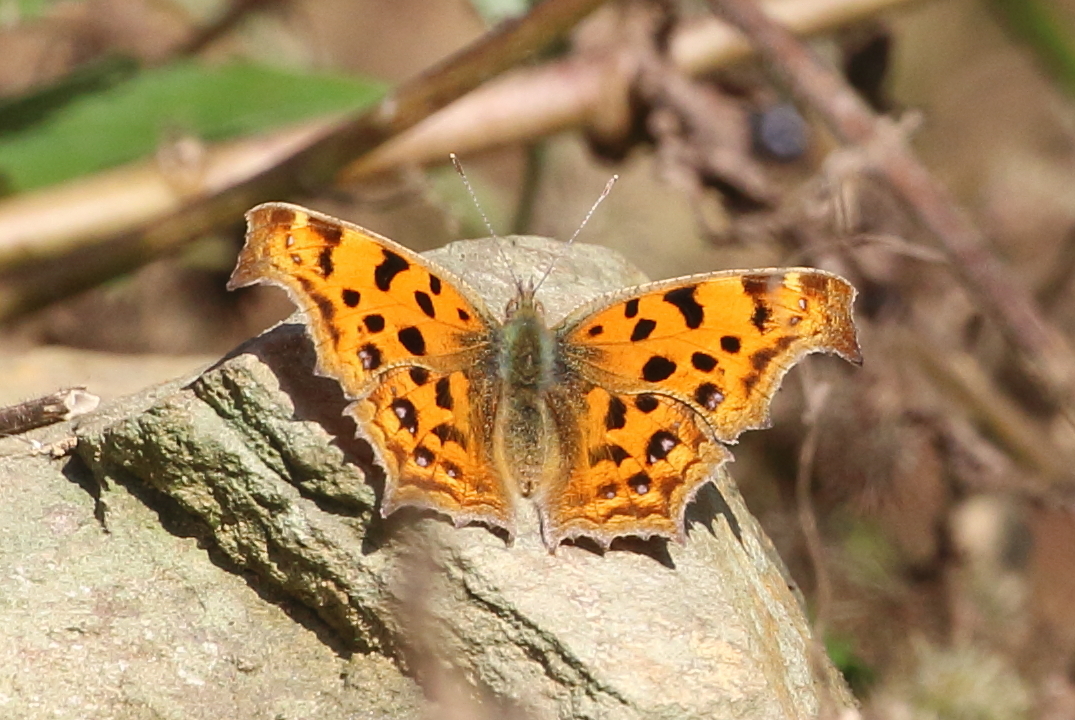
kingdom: Animalia
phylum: Arthropoda
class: Insecta
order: Lepidoptera
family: Nymphalidae
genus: Polygonia
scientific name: Polygonia c-aureum
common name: Asian comma
